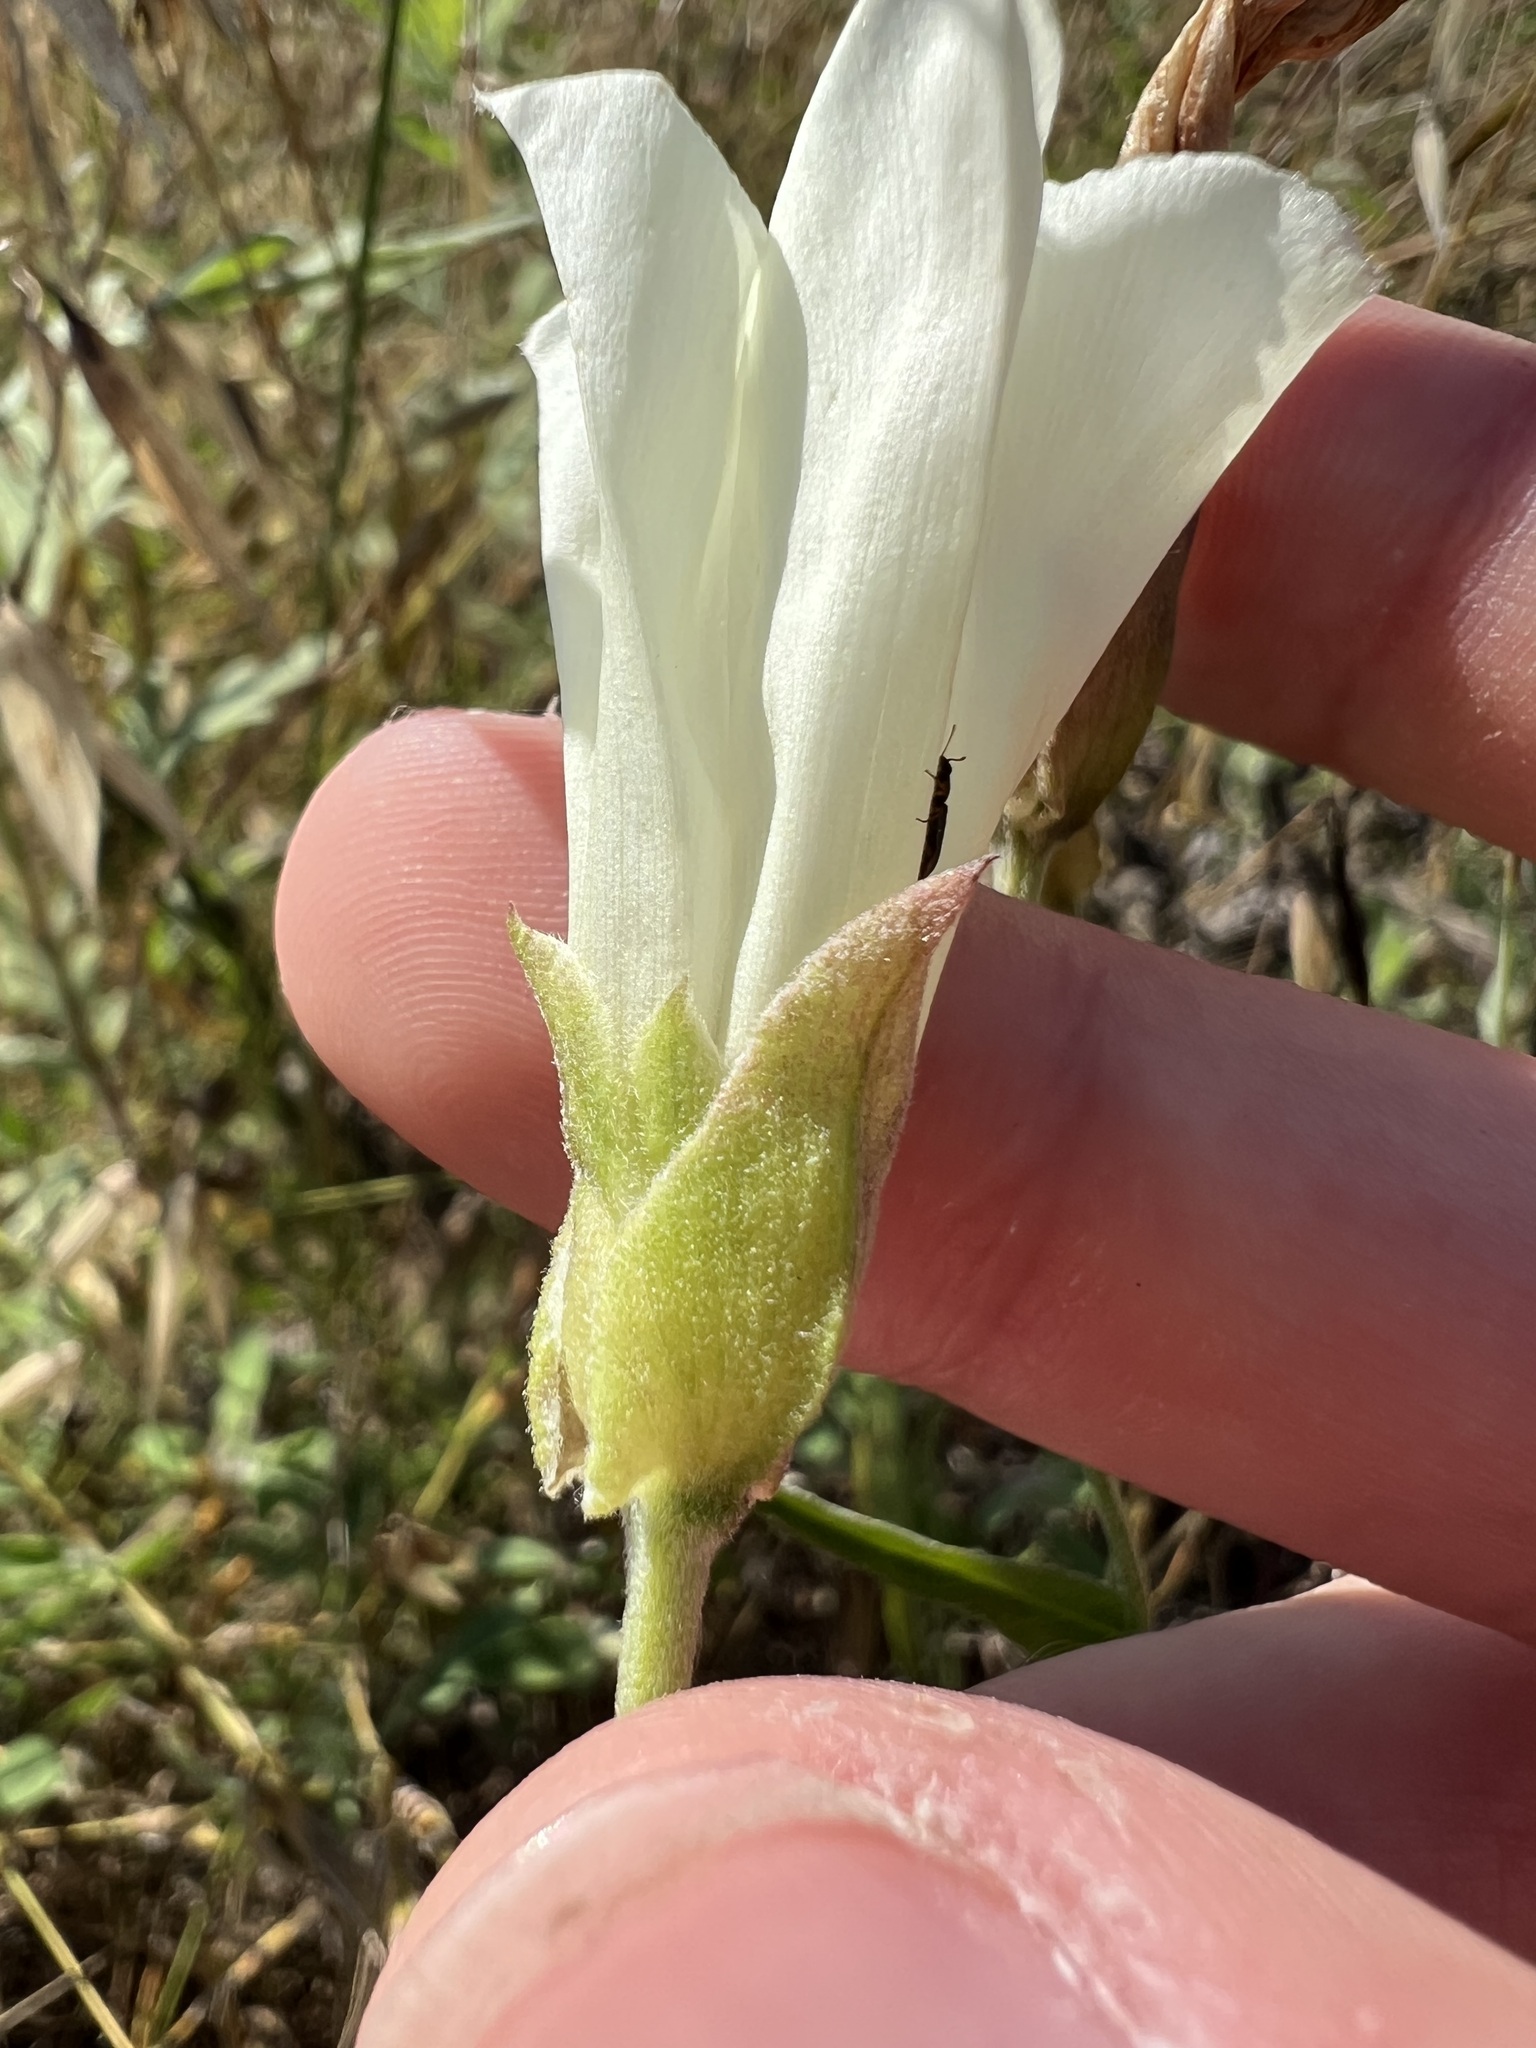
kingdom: Plantae
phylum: Tracheophyta
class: Magnoliopsida
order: Solanales
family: Convolvulaceae
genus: Calystegia
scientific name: Calystegia macrostegia
